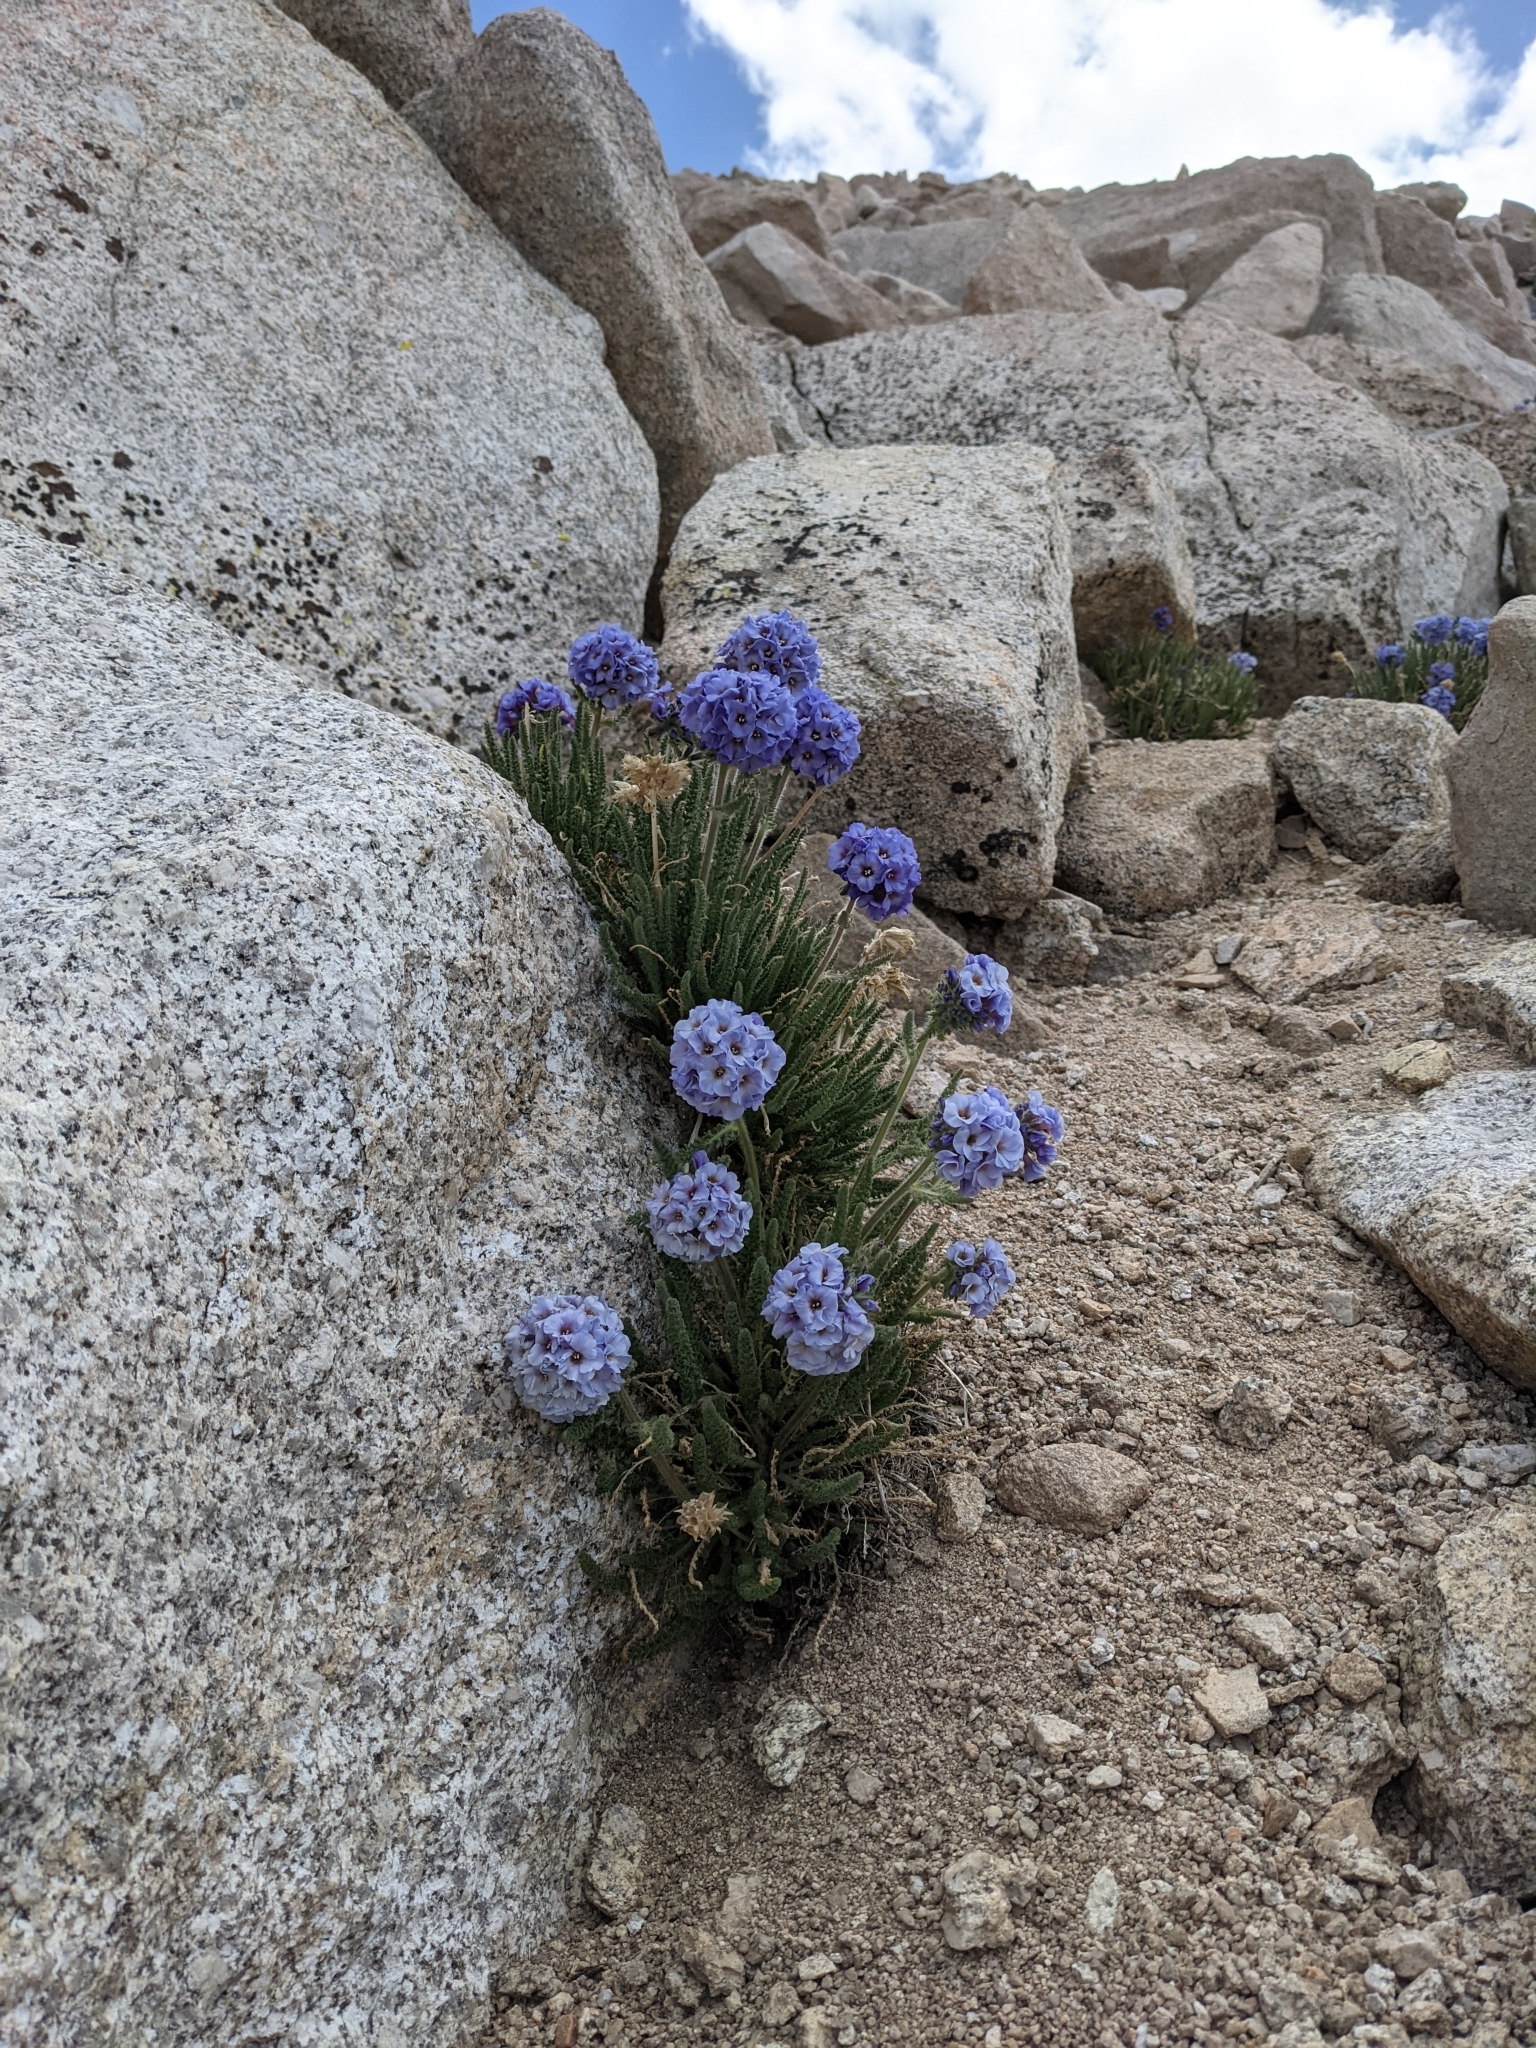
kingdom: Plantae
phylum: Tracheophyta
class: Magnoliopsida
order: Ericales
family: Polemoniaceae
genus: Polemonium
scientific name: Polemonium eximium
